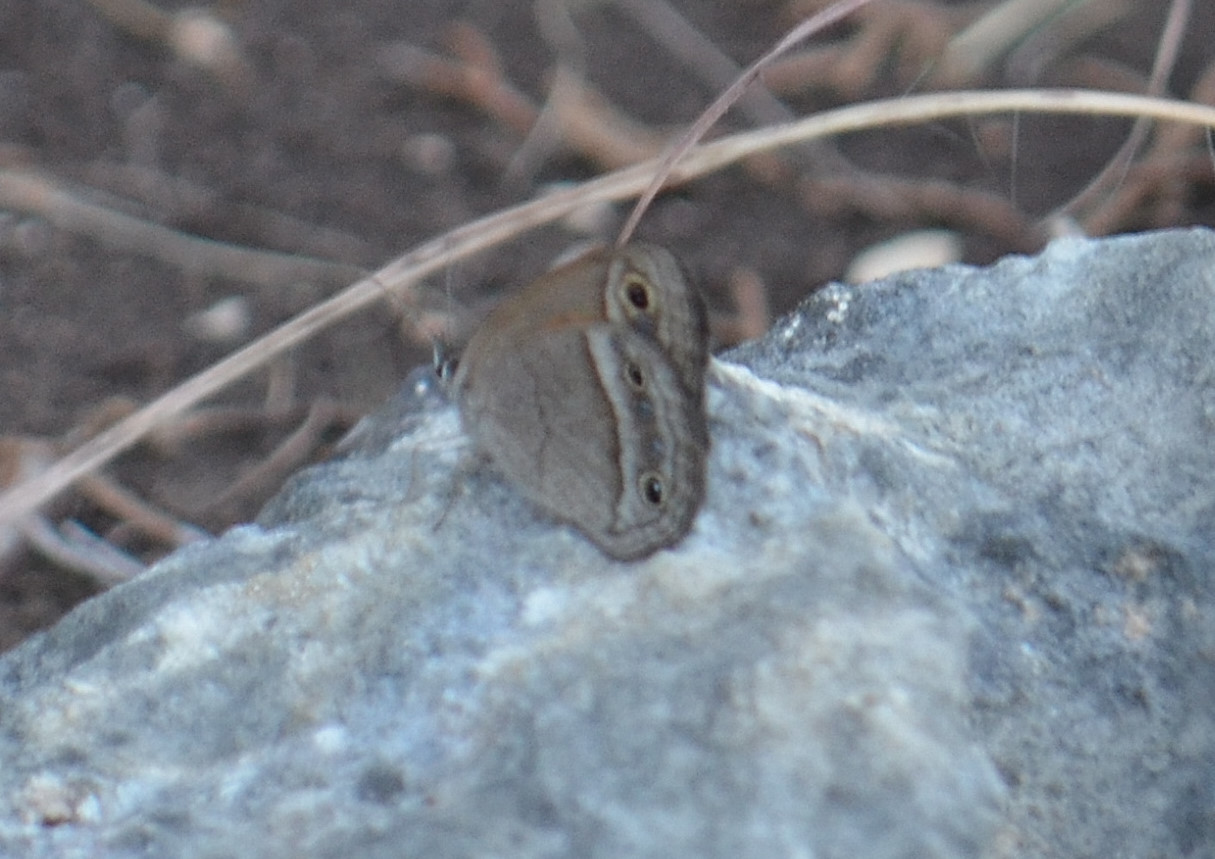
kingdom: Animalia
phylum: Arthropoda
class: Insecta
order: Lepidoptera
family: Nymphalidae
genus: Euptychia
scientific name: Euptychia Cissia rubricata
